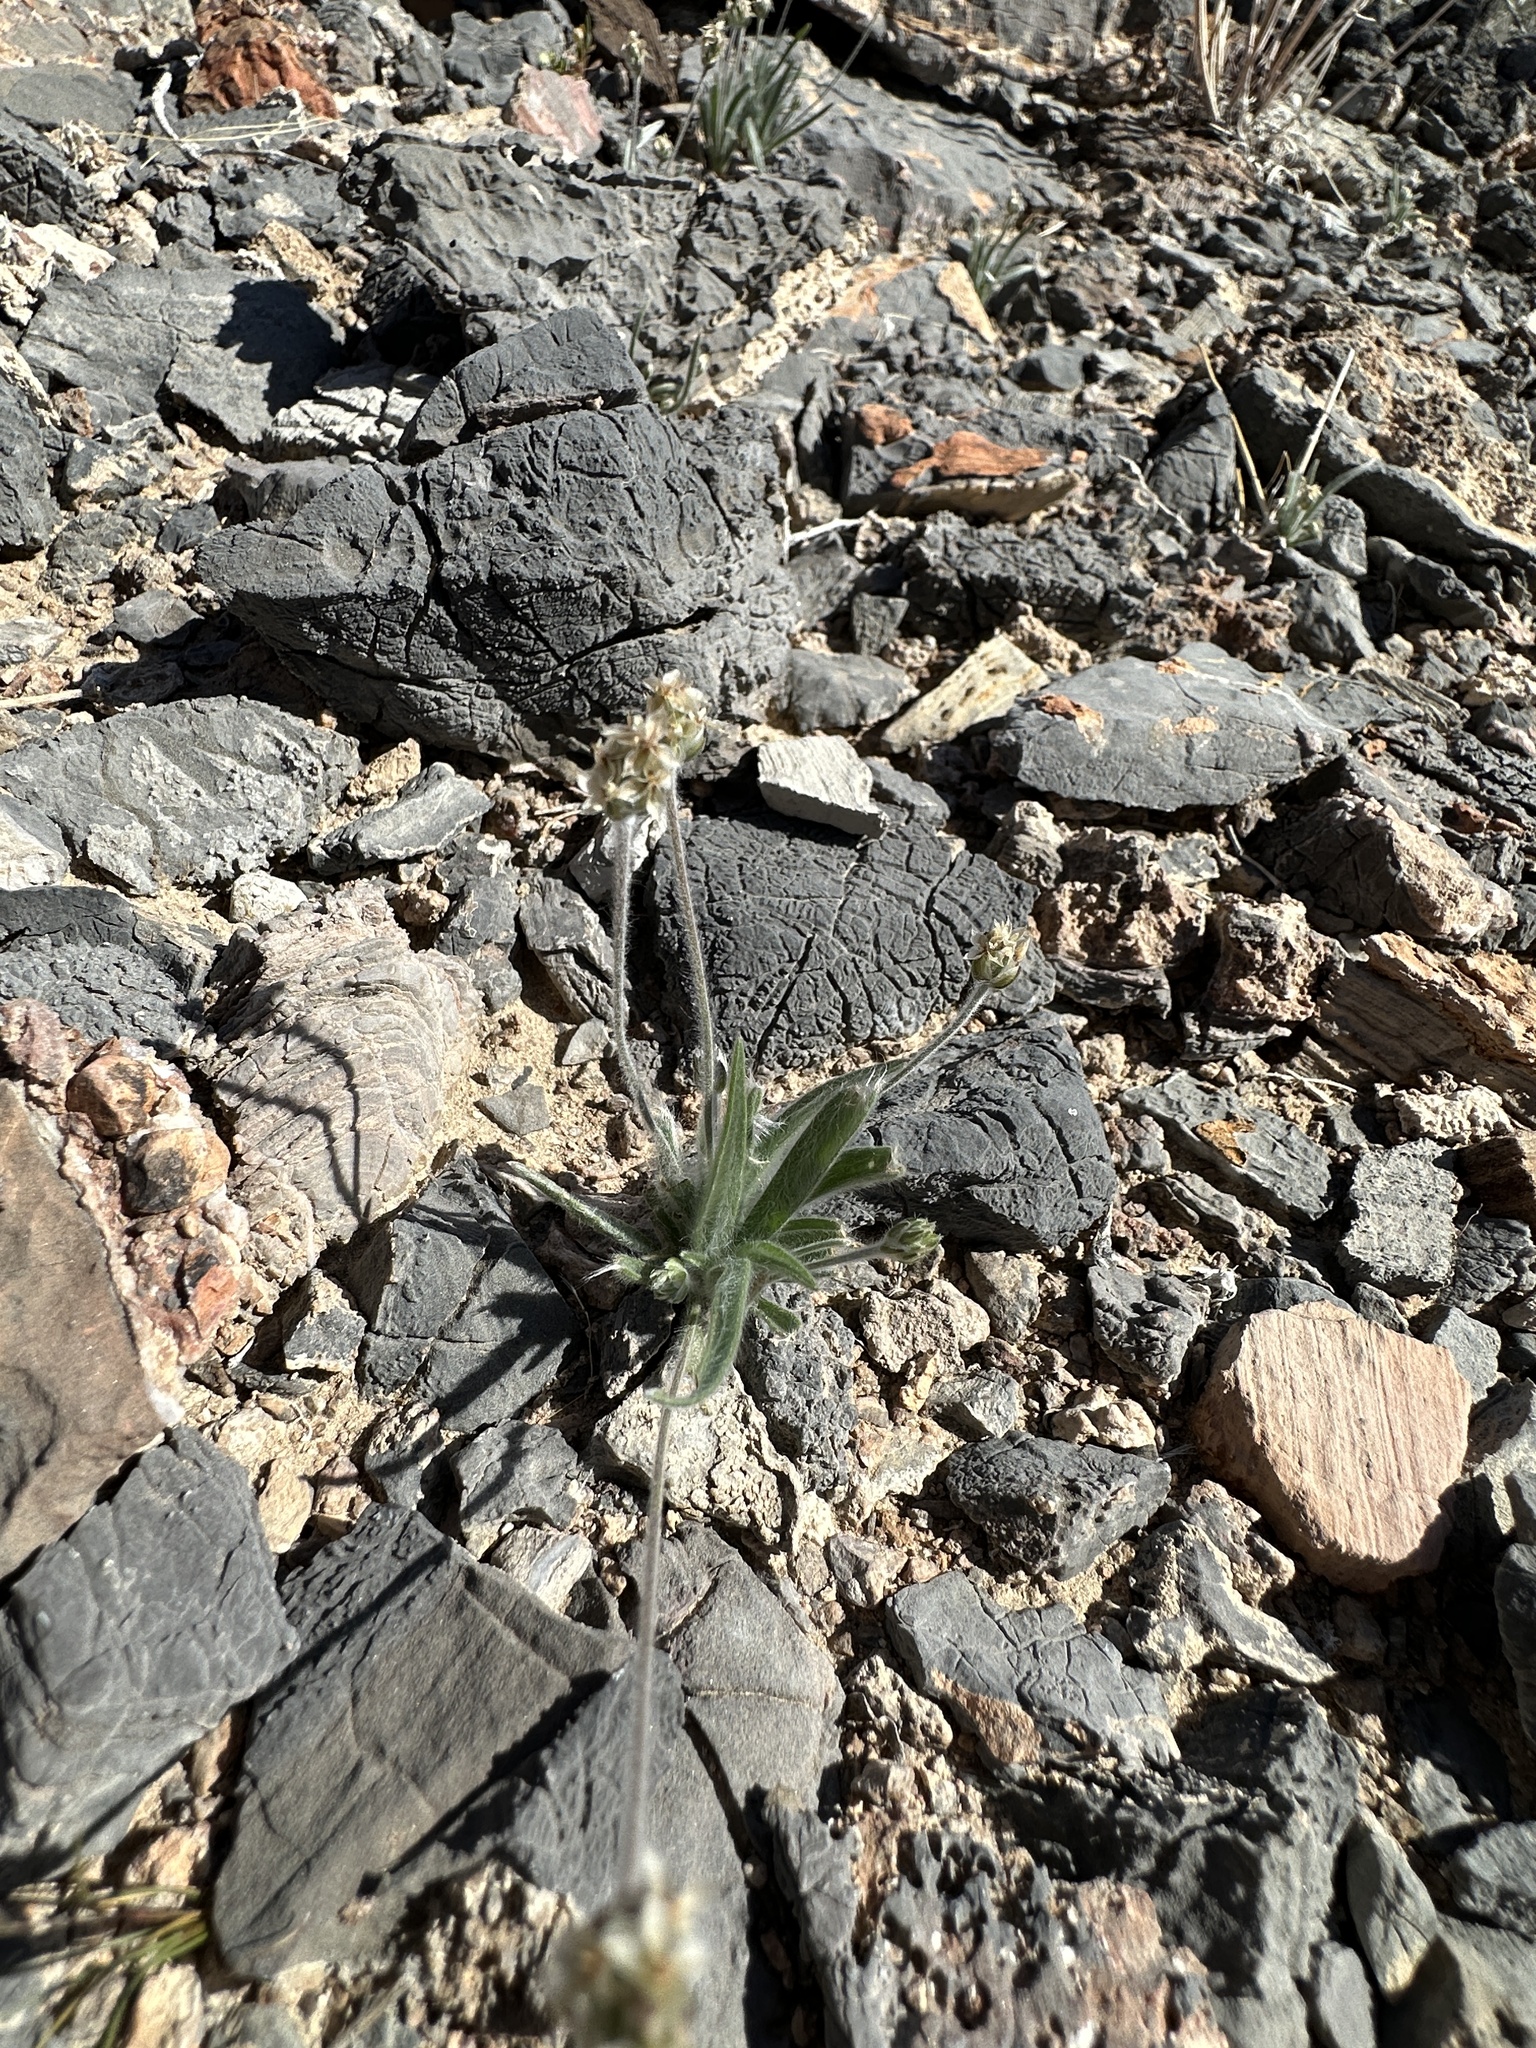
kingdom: Plantae
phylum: Tracheophyta
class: Magnoliopsida
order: Lamiales
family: Plantaginaceae
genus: Plantago
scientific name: Plantago ovata
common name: Blond plantain
